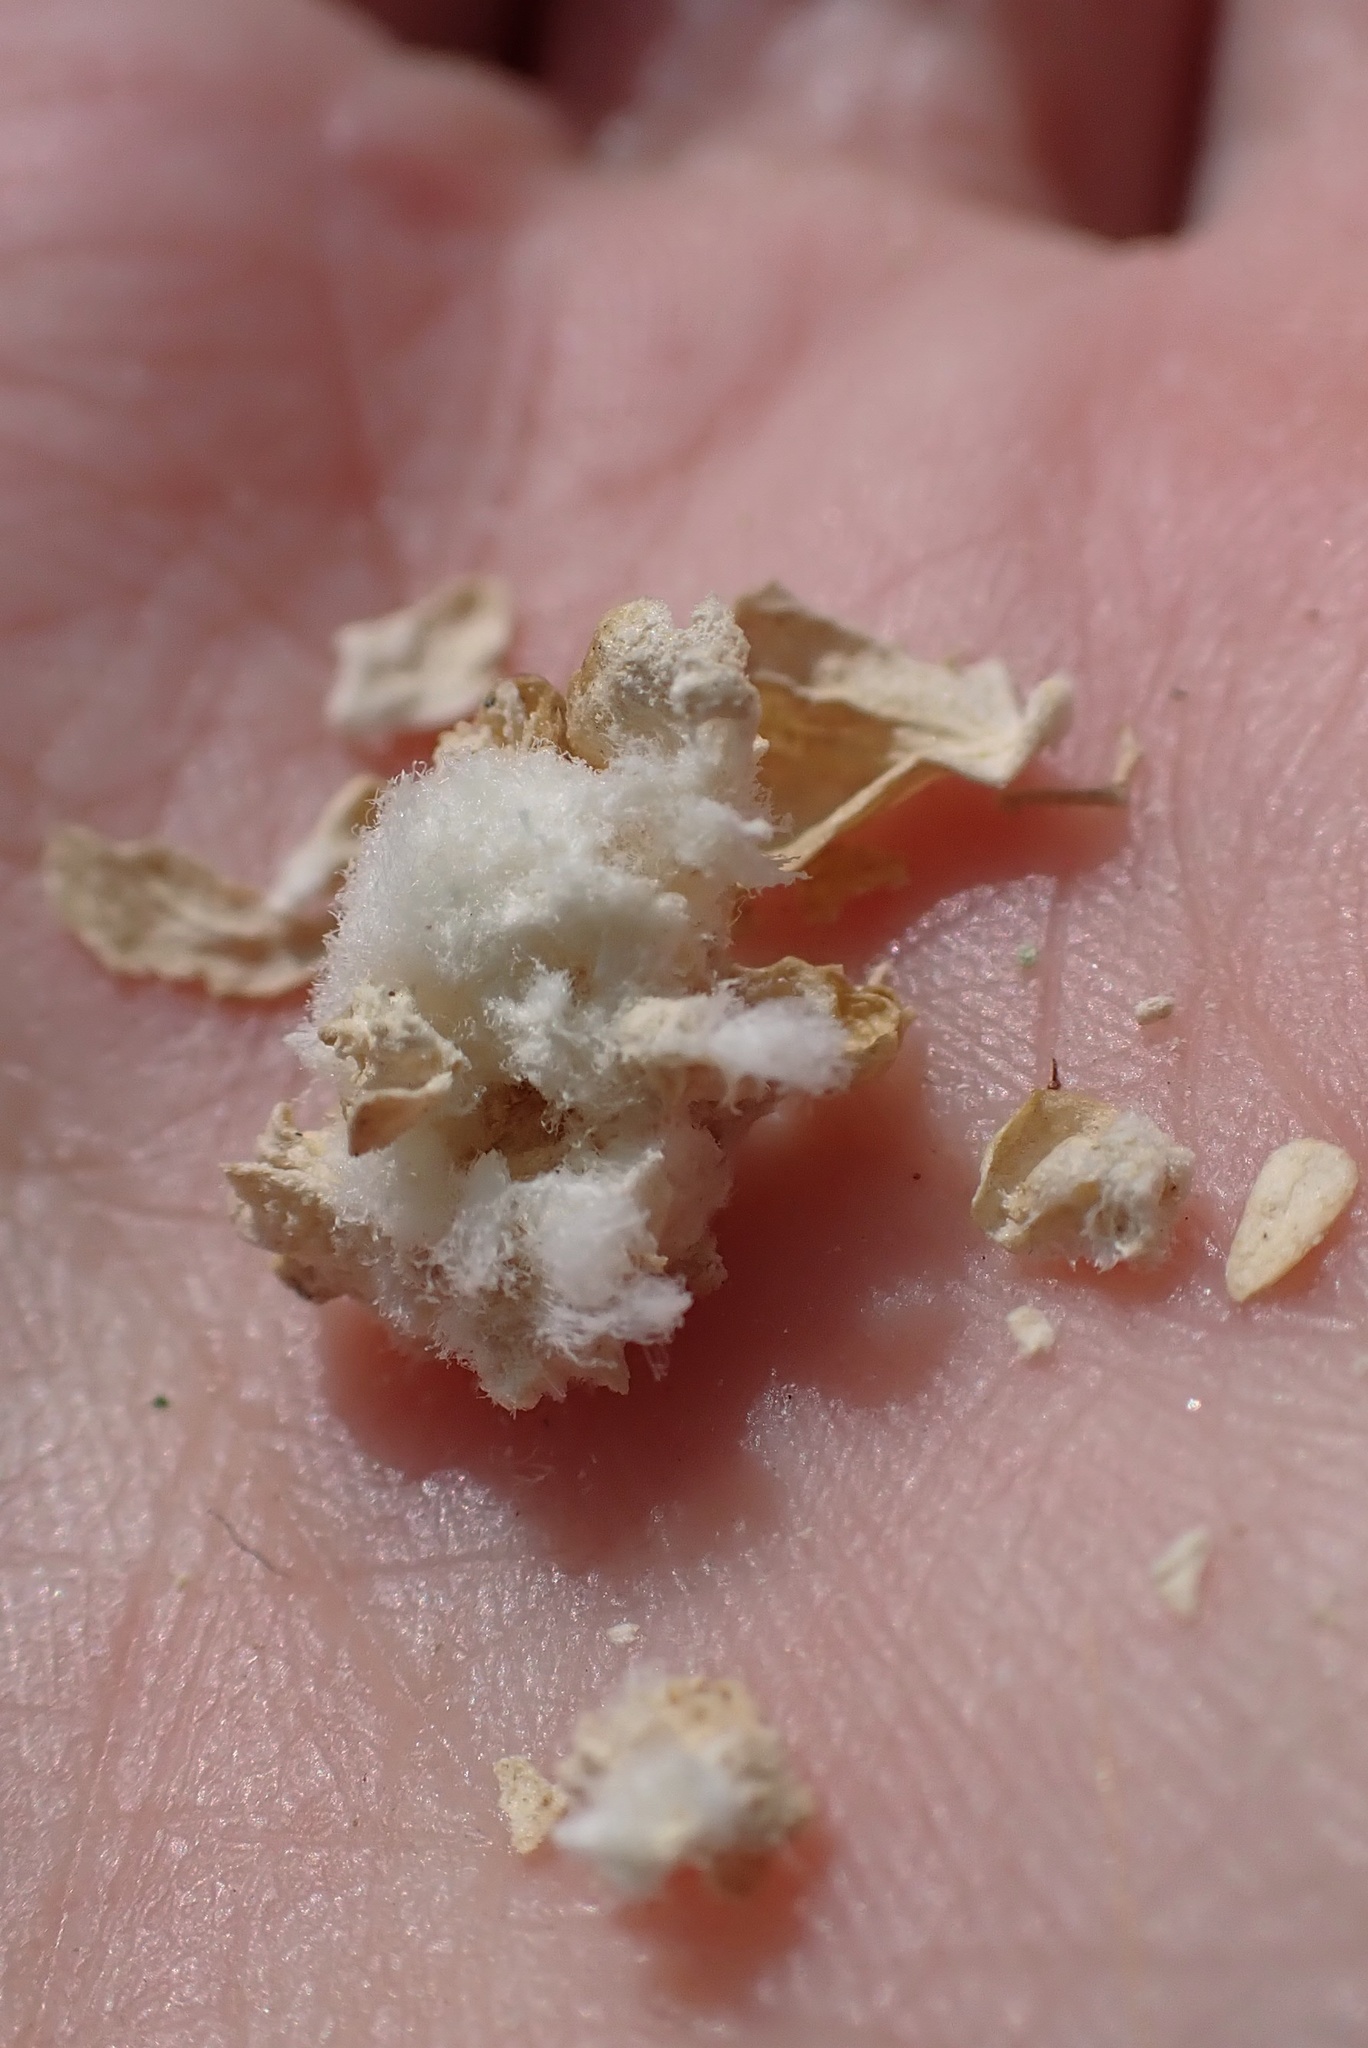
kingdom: Animalia
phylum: Arthropoda
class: Insecta
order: Diptera
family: Cecidomyiidae
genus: Asphondylia
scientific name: Asphondylia floccosa
